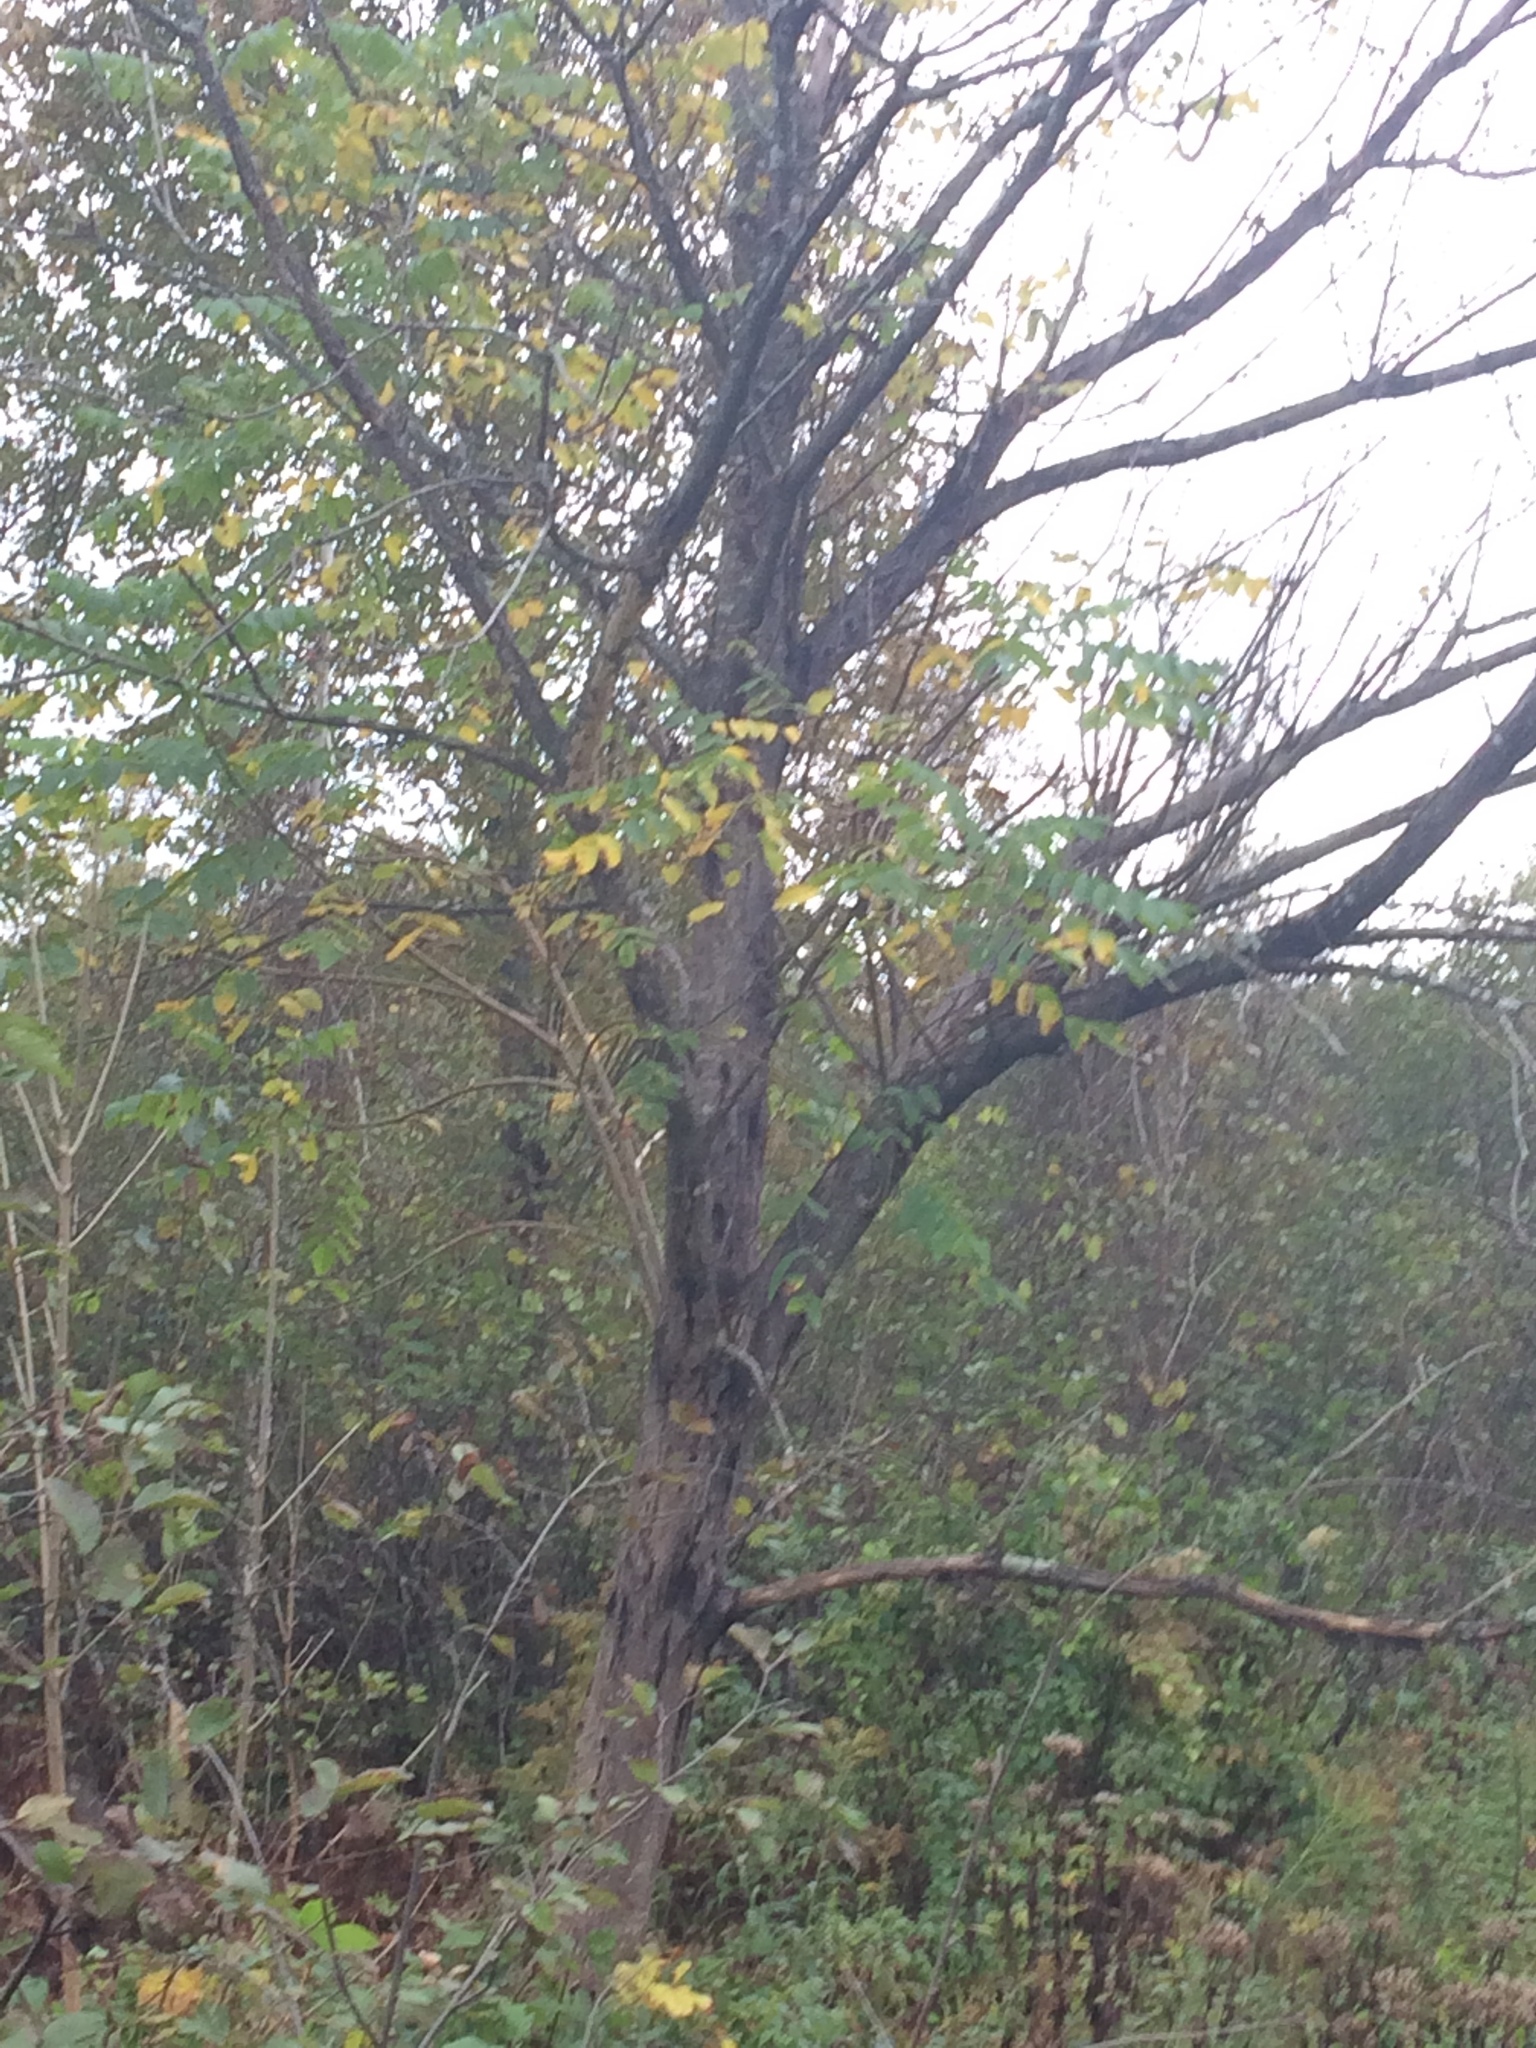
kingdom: Plantae
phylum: Tracheophyta
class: Magnoliopsida
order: Fagales
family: Juglandaceae
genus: Juglans
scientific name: Juglans cinerea
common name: Butternut
